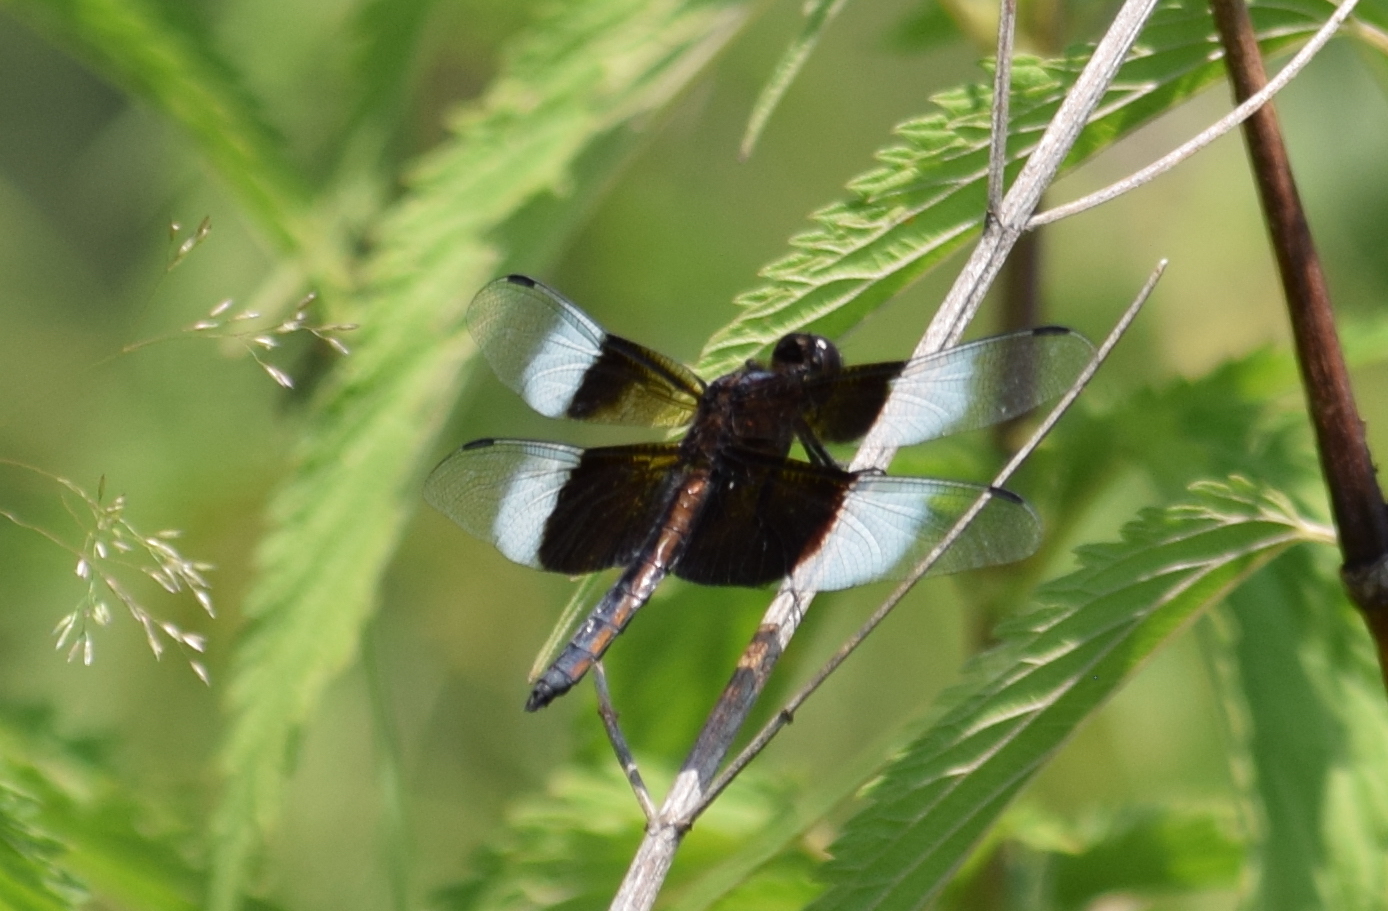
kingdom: Animalia
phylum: Arthropoda
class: Insecta
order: Odonata
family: Libellulidae
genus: Libellula
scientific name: Libellula luctuosa
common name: Widow skimmer
